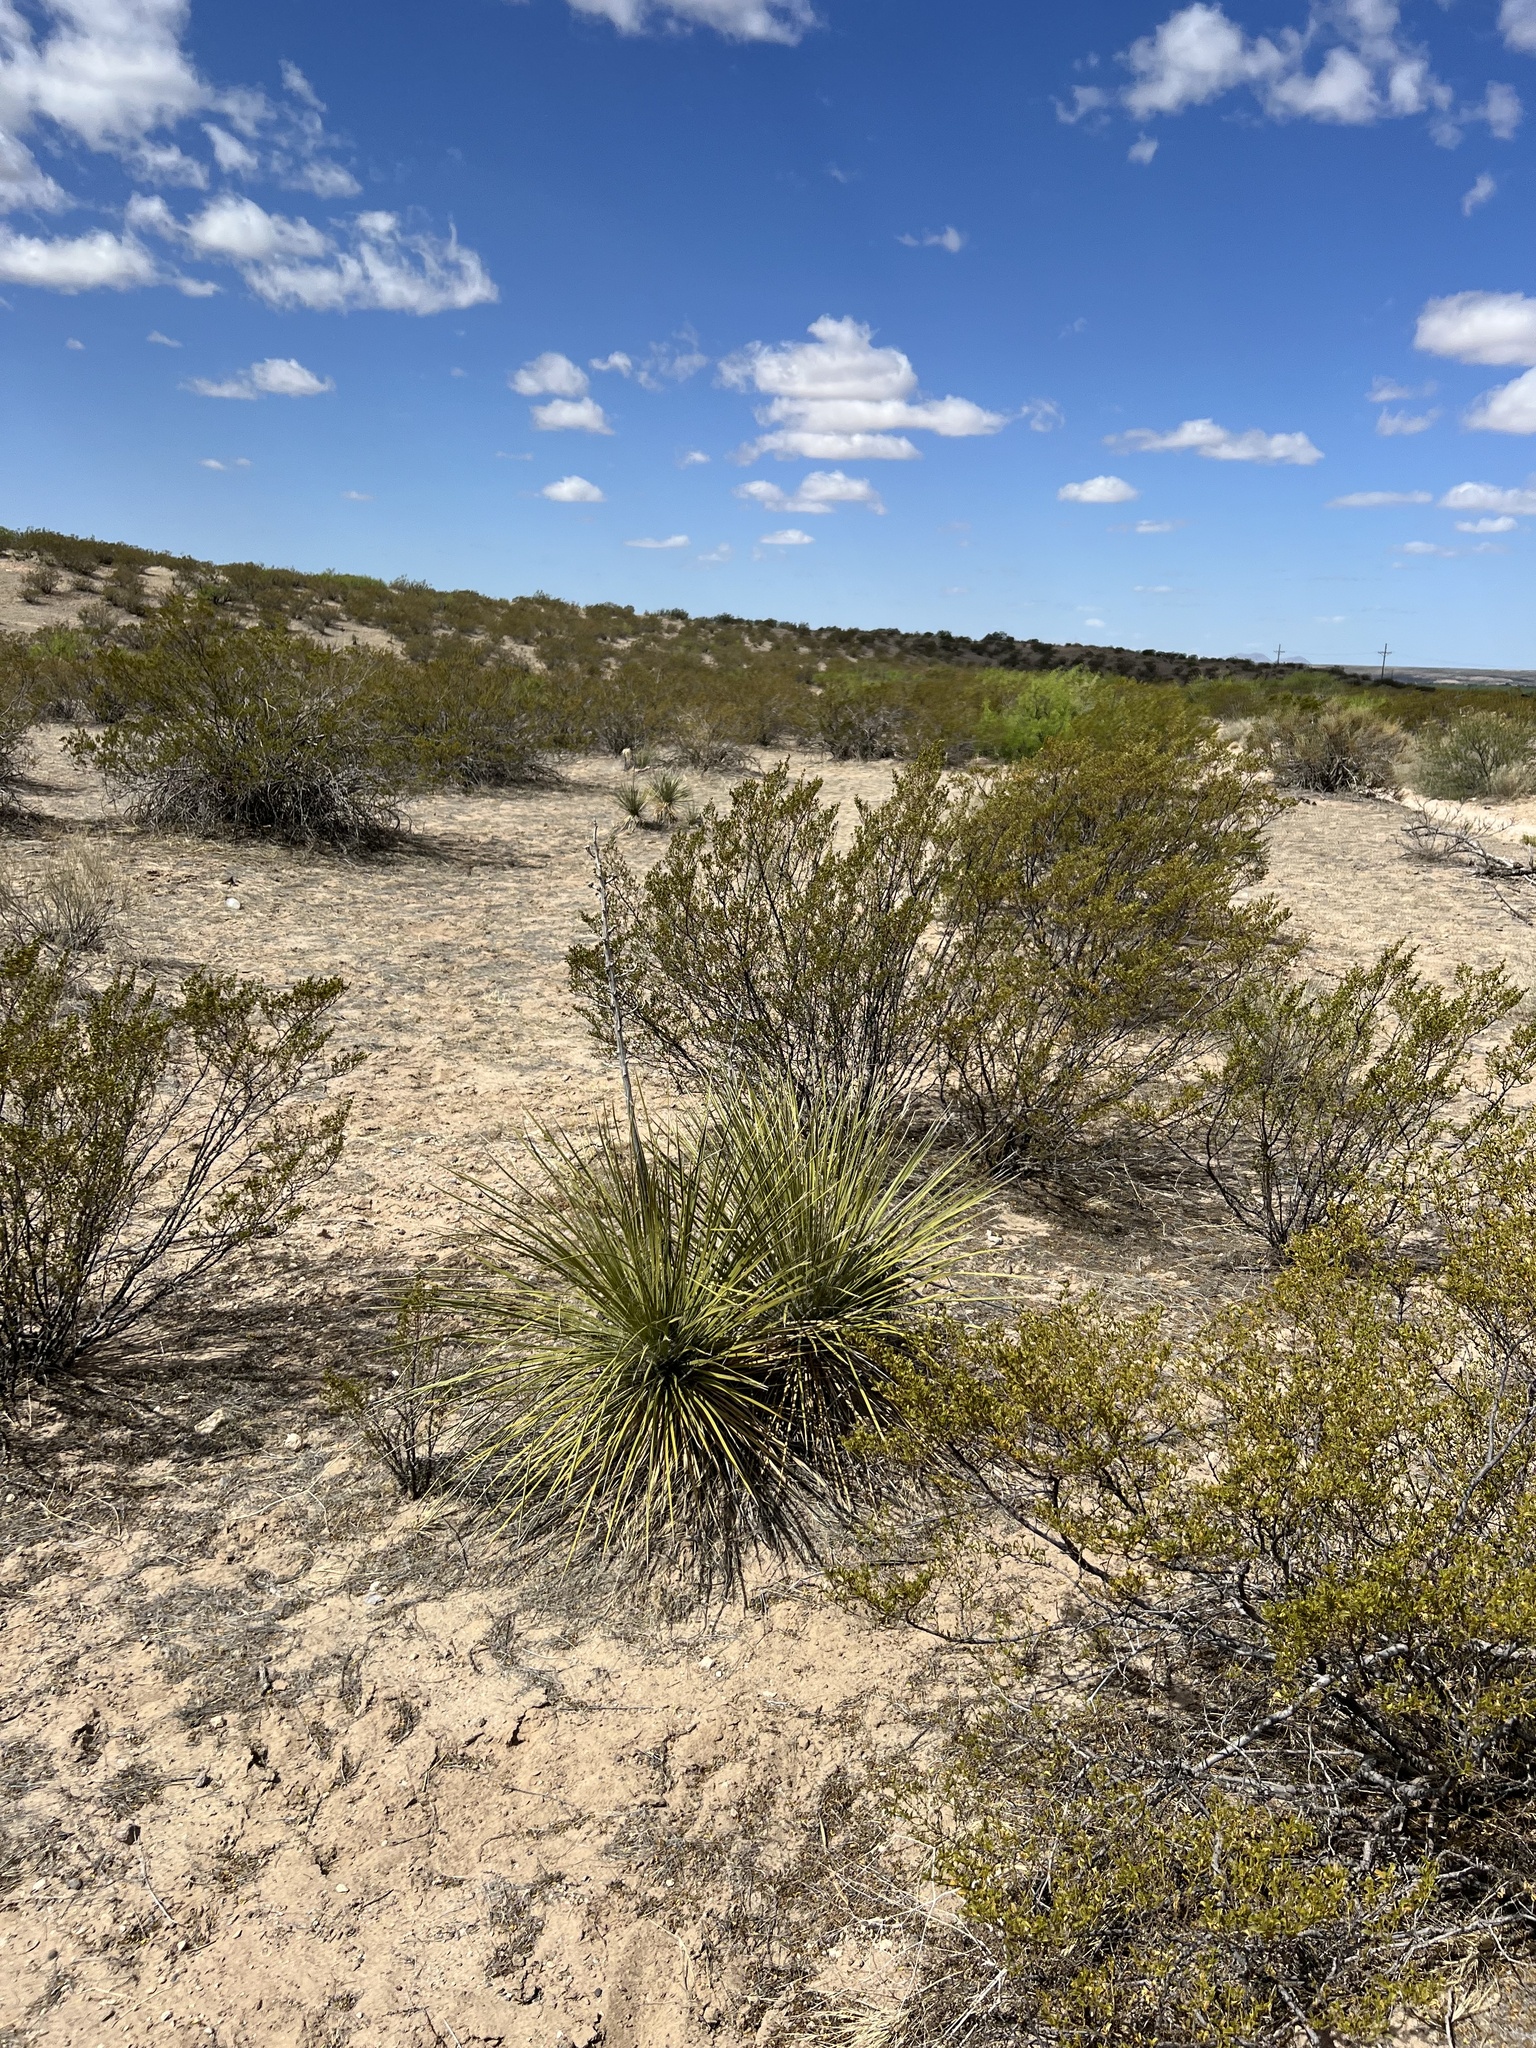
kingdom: Plantae
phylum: Tracheophyta
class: Liliopsida
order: Asparagales
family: Asparagaceae
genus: Yucca
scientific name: Yucca elata
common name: Palmella
